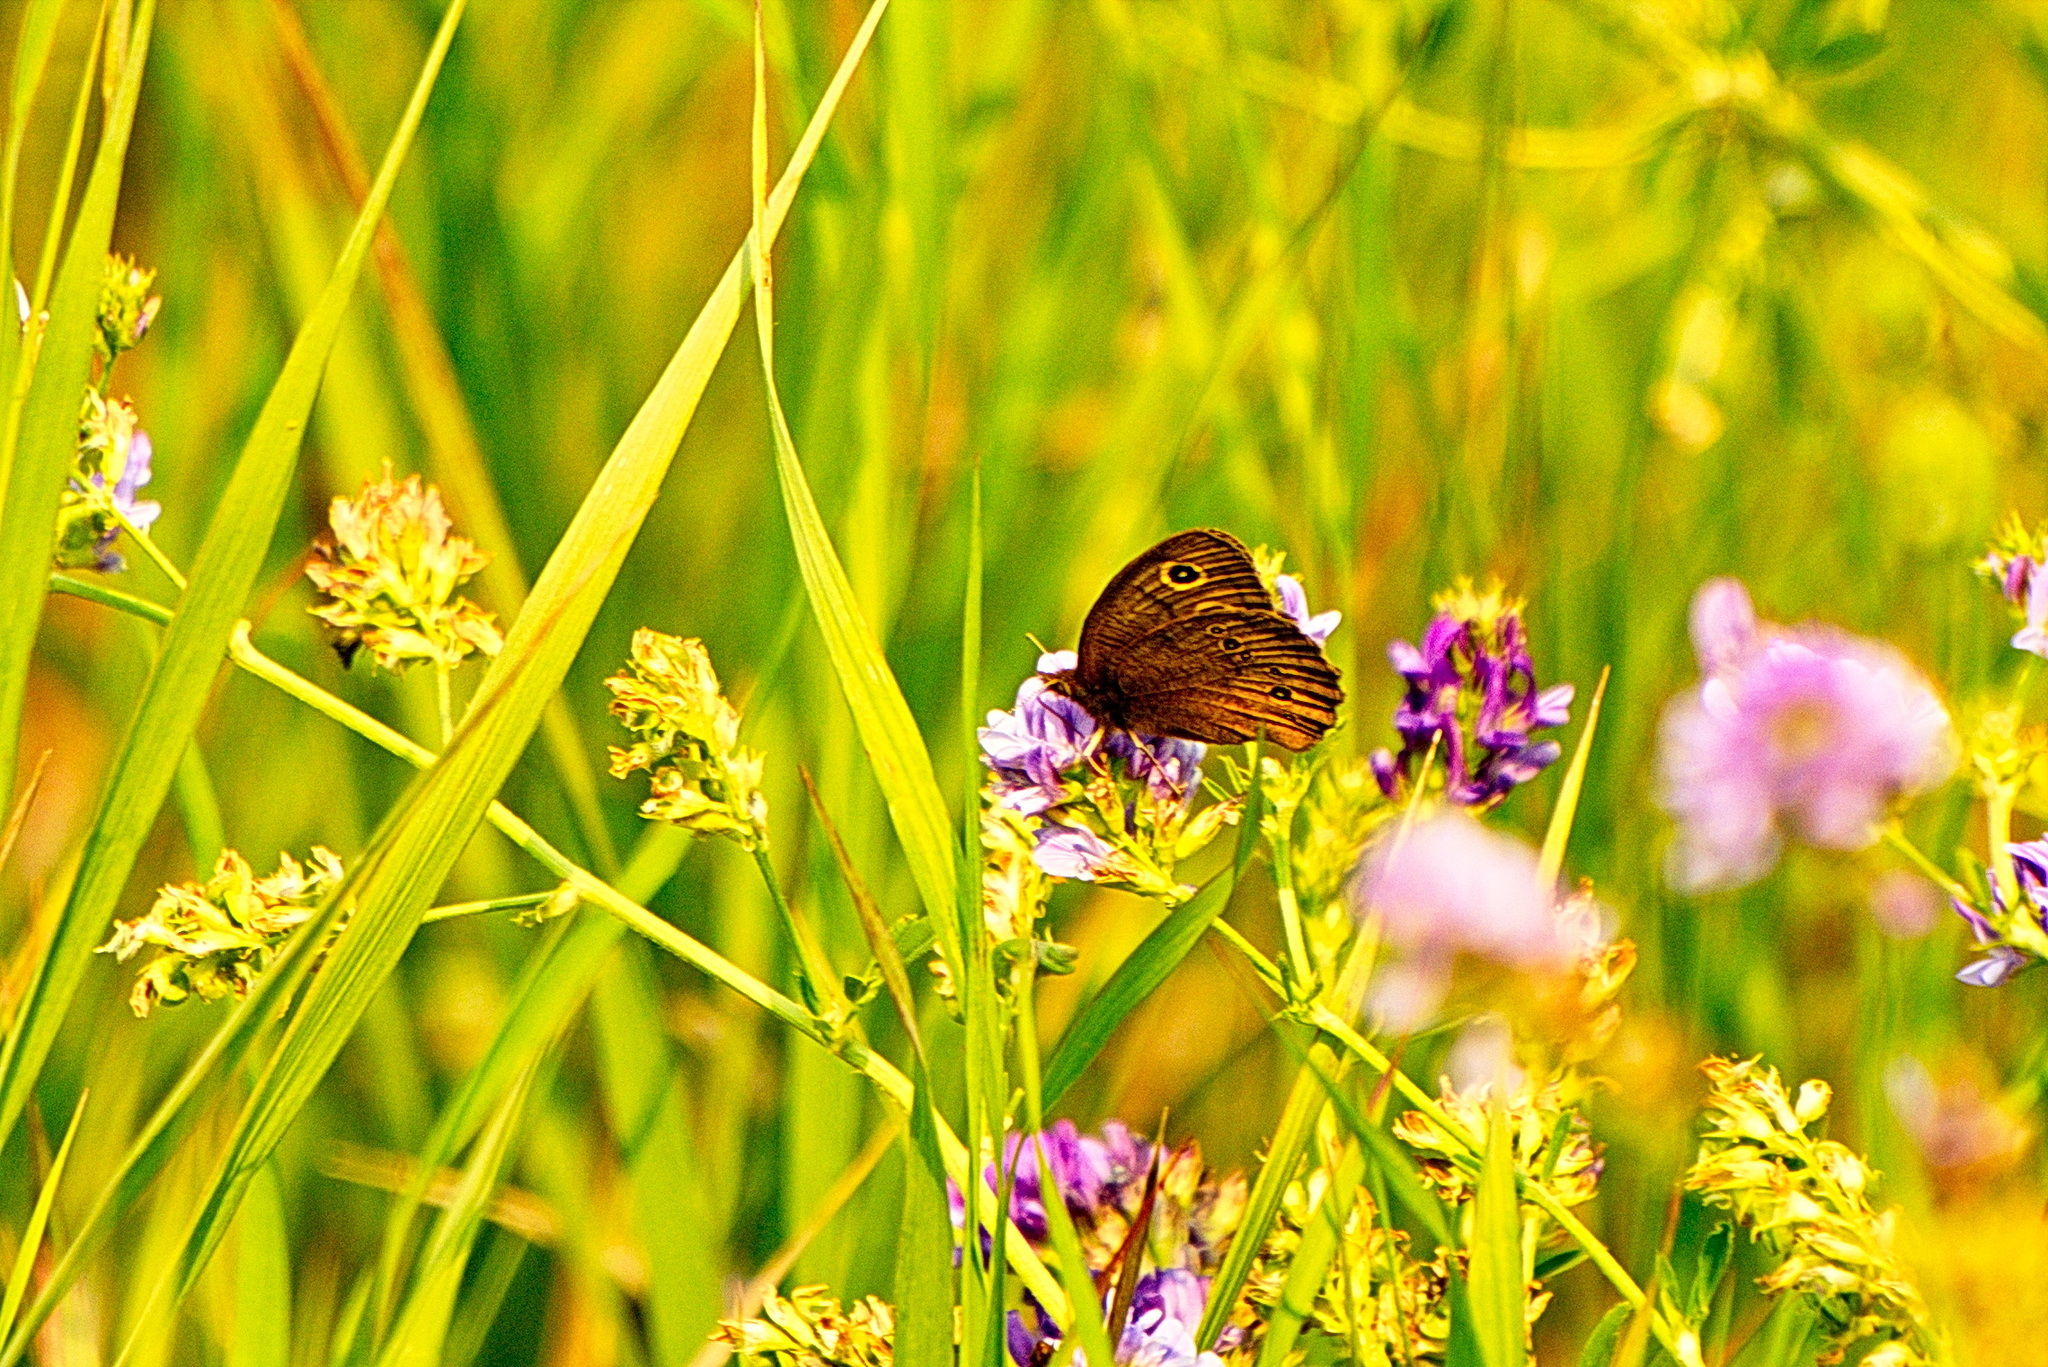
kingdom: Animalia
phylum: Arthropoda
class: Insecta
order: Lepidoptera
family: Nymphalidae
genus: Cercyonis
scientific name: Cercyonis pegala
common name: Common wood-nymph
